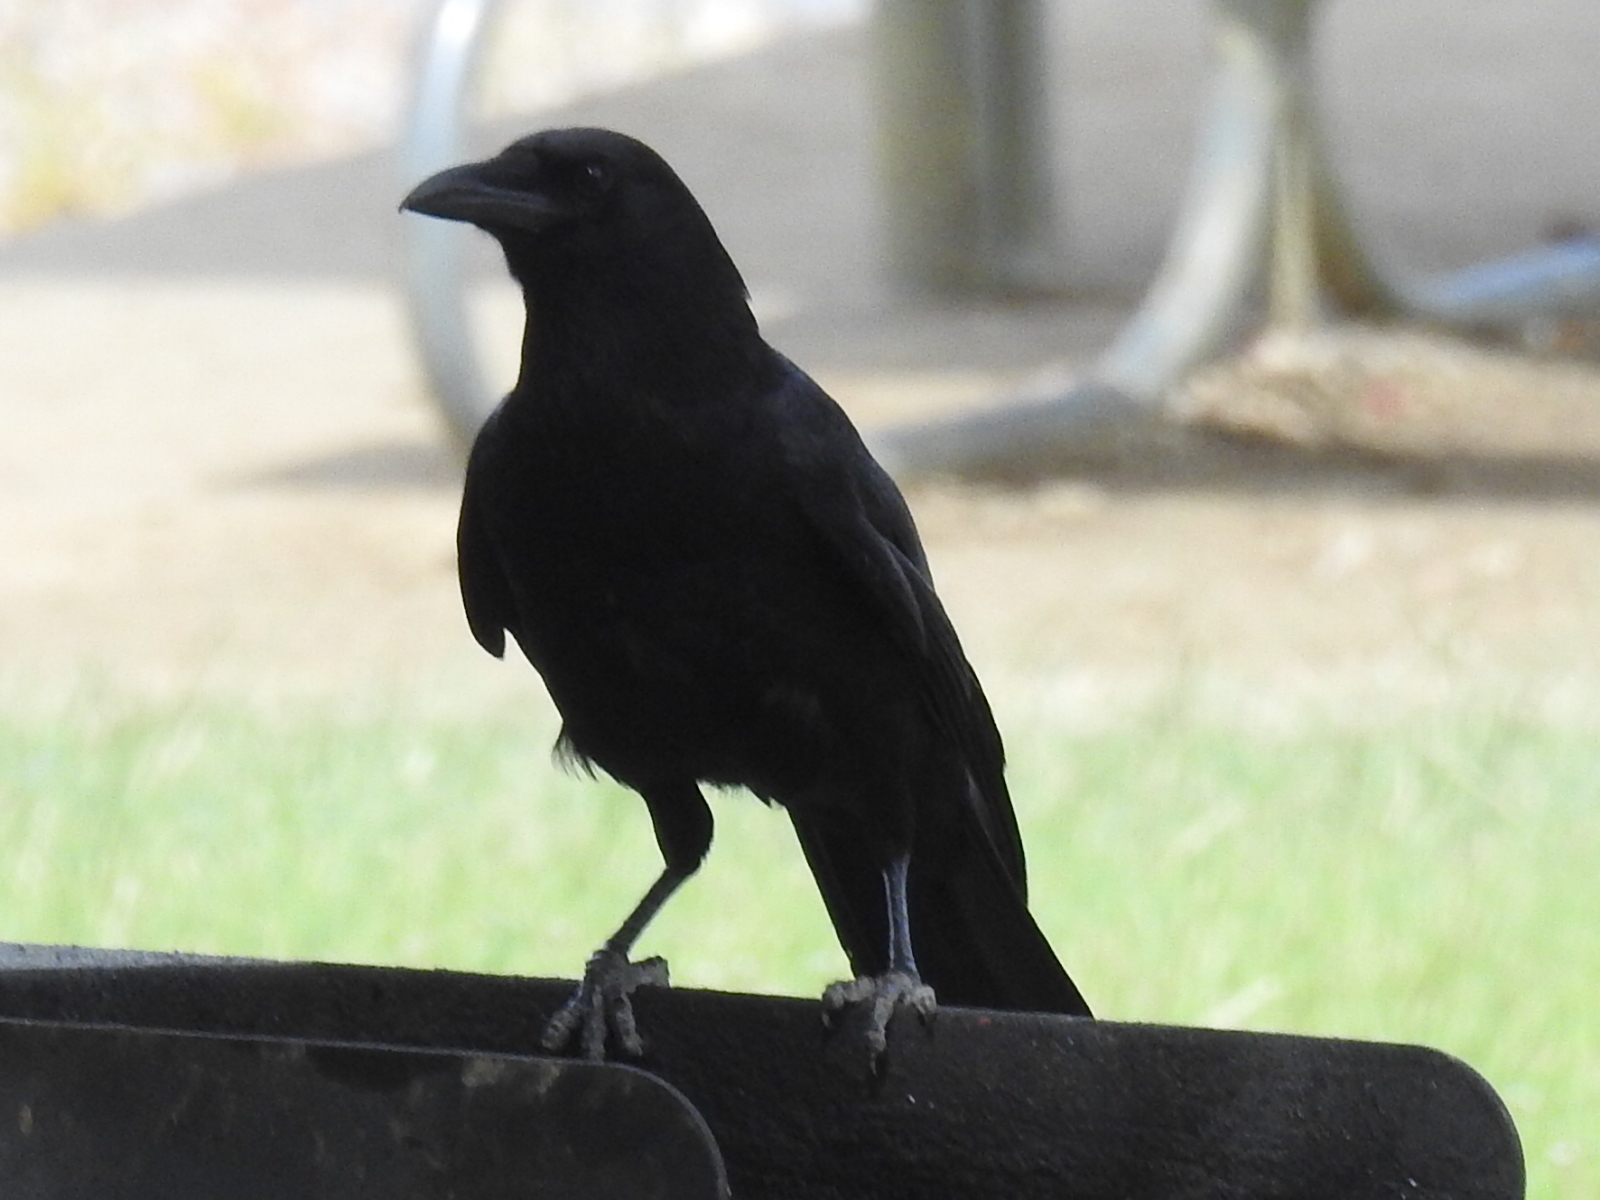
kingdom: Animalia
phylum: Chordata
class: Aves
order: Passeriformes
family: Corvidae
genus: Corvus
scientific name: Corvus brachyrhynchos
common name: American crow
